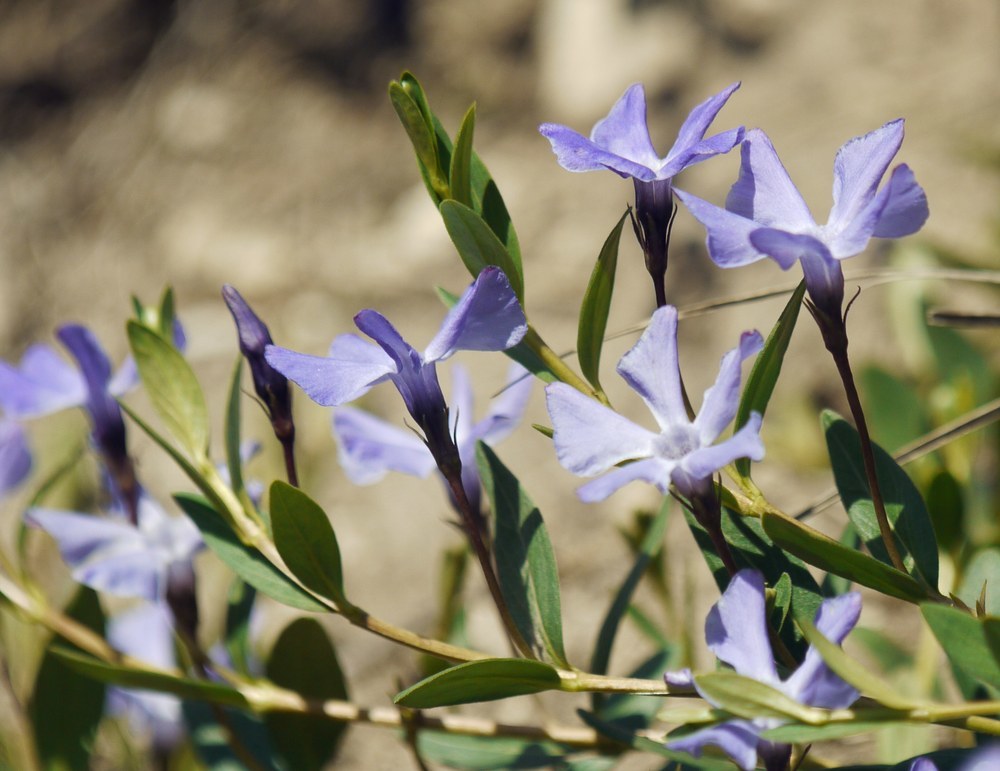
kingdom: Plantae
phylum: Tracheophyta
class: Magnoliopsida
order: Gentianales
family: Apocynaceae
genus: Vinca
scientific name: Vinca herbacea
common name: Herbaceous periwinkle
